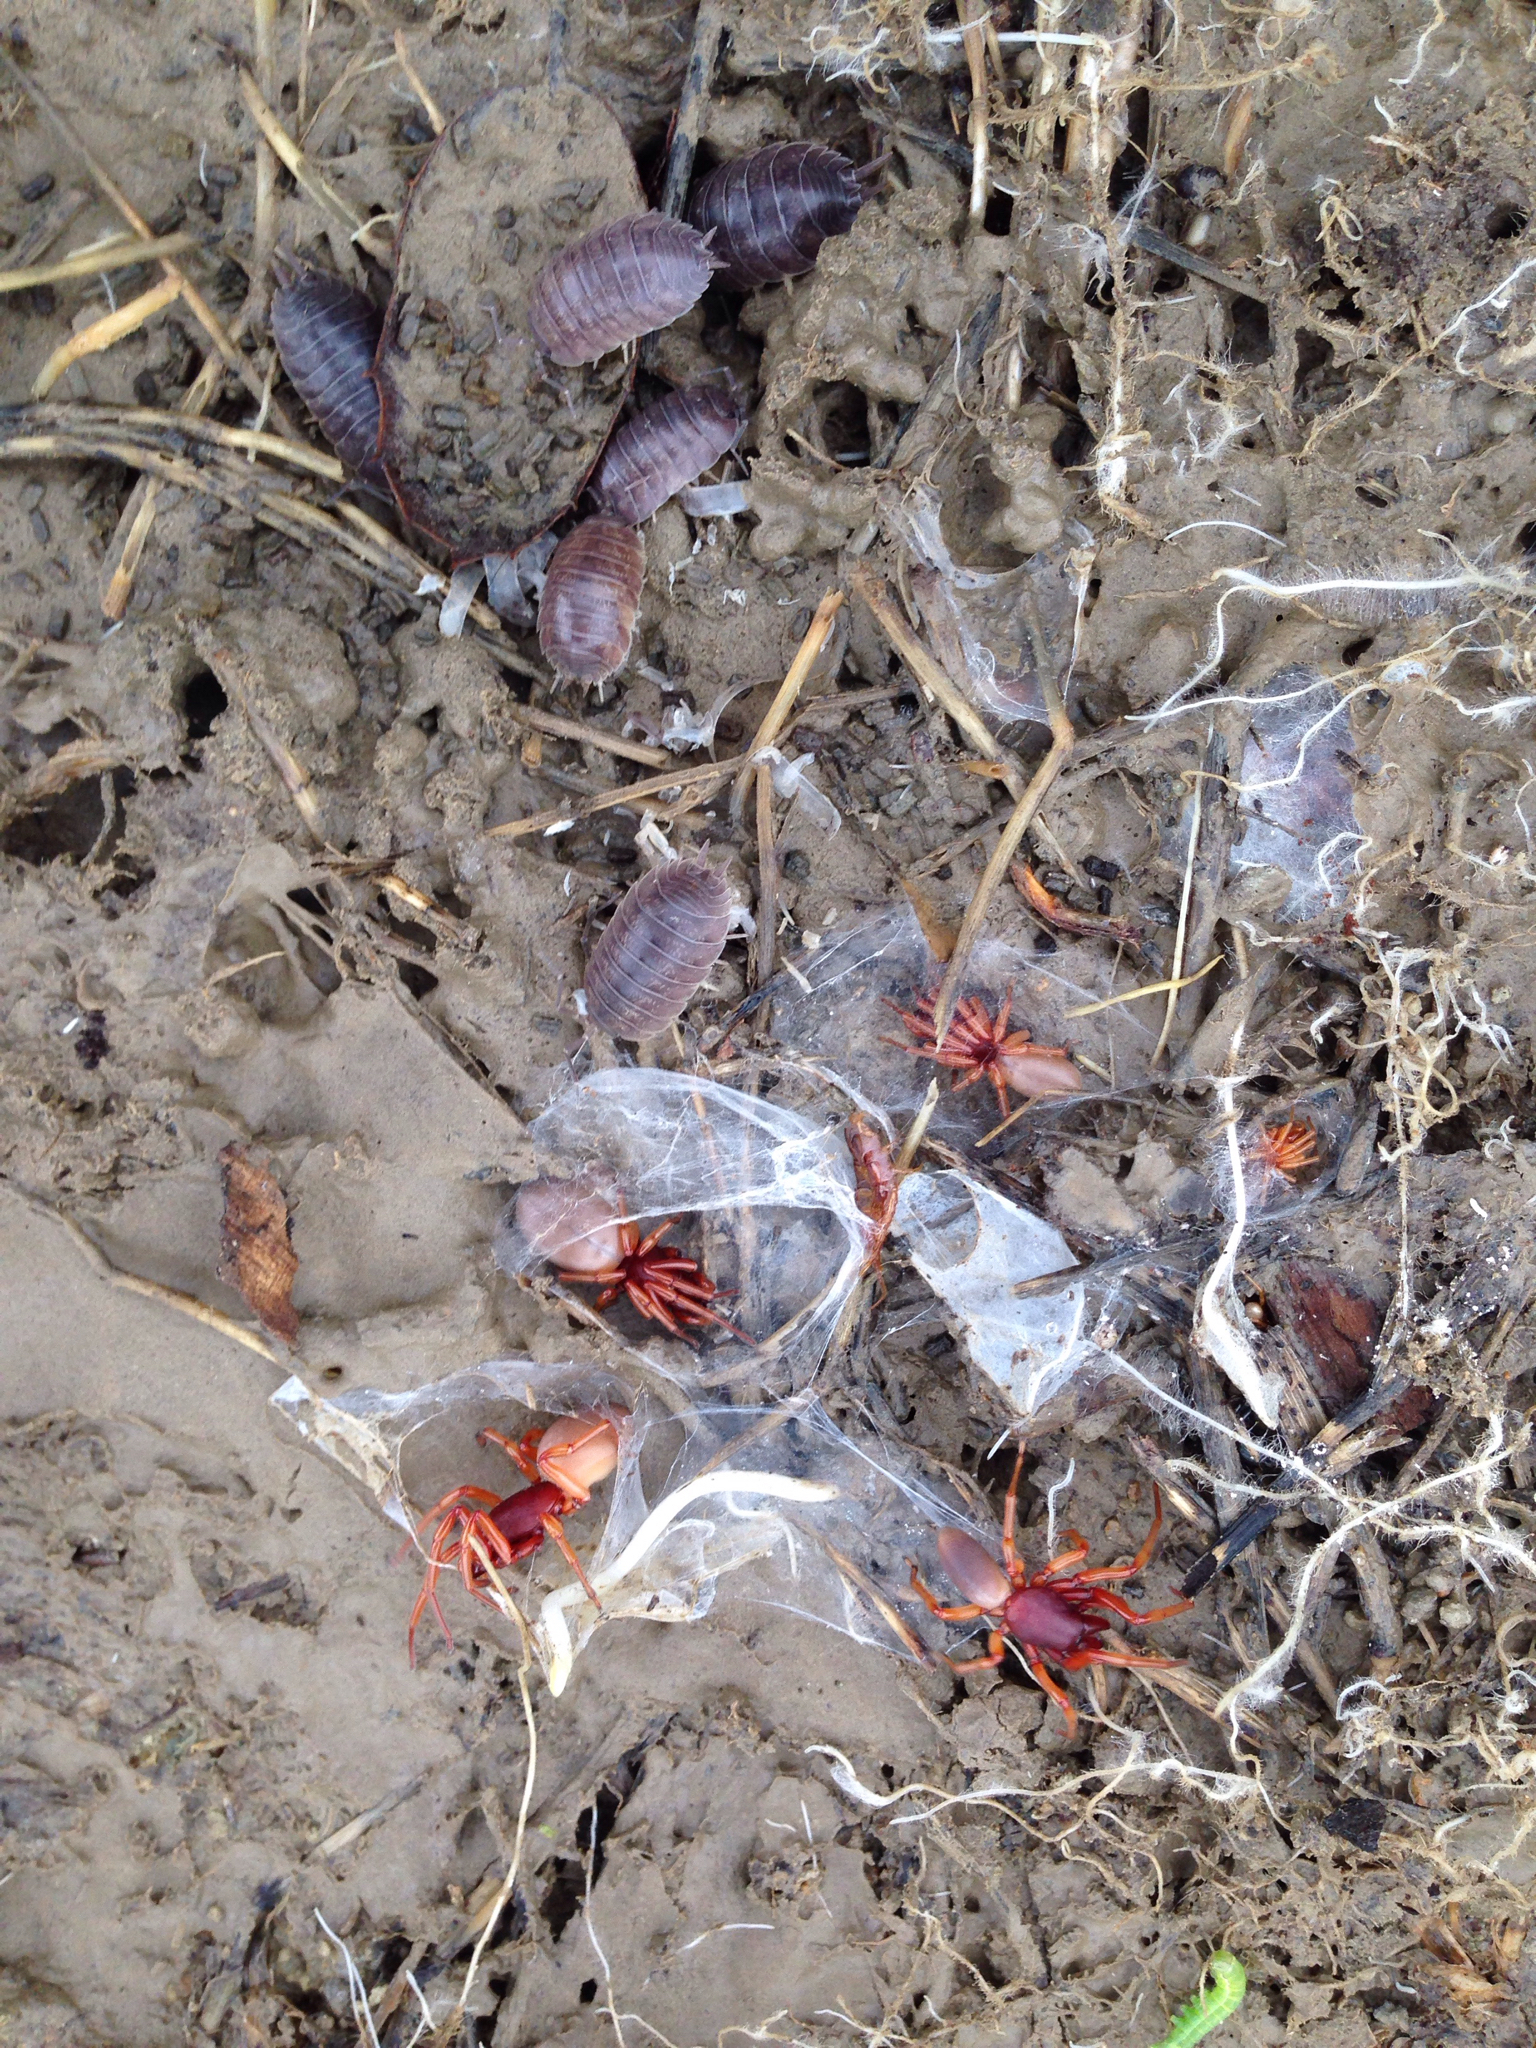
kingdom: Animalia
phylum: Arthropoda
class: Malacostraca
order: Isopoda
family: Porcellionidae
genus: Porcellio
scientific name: Porcellio laevis
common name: Swift woodlouse
